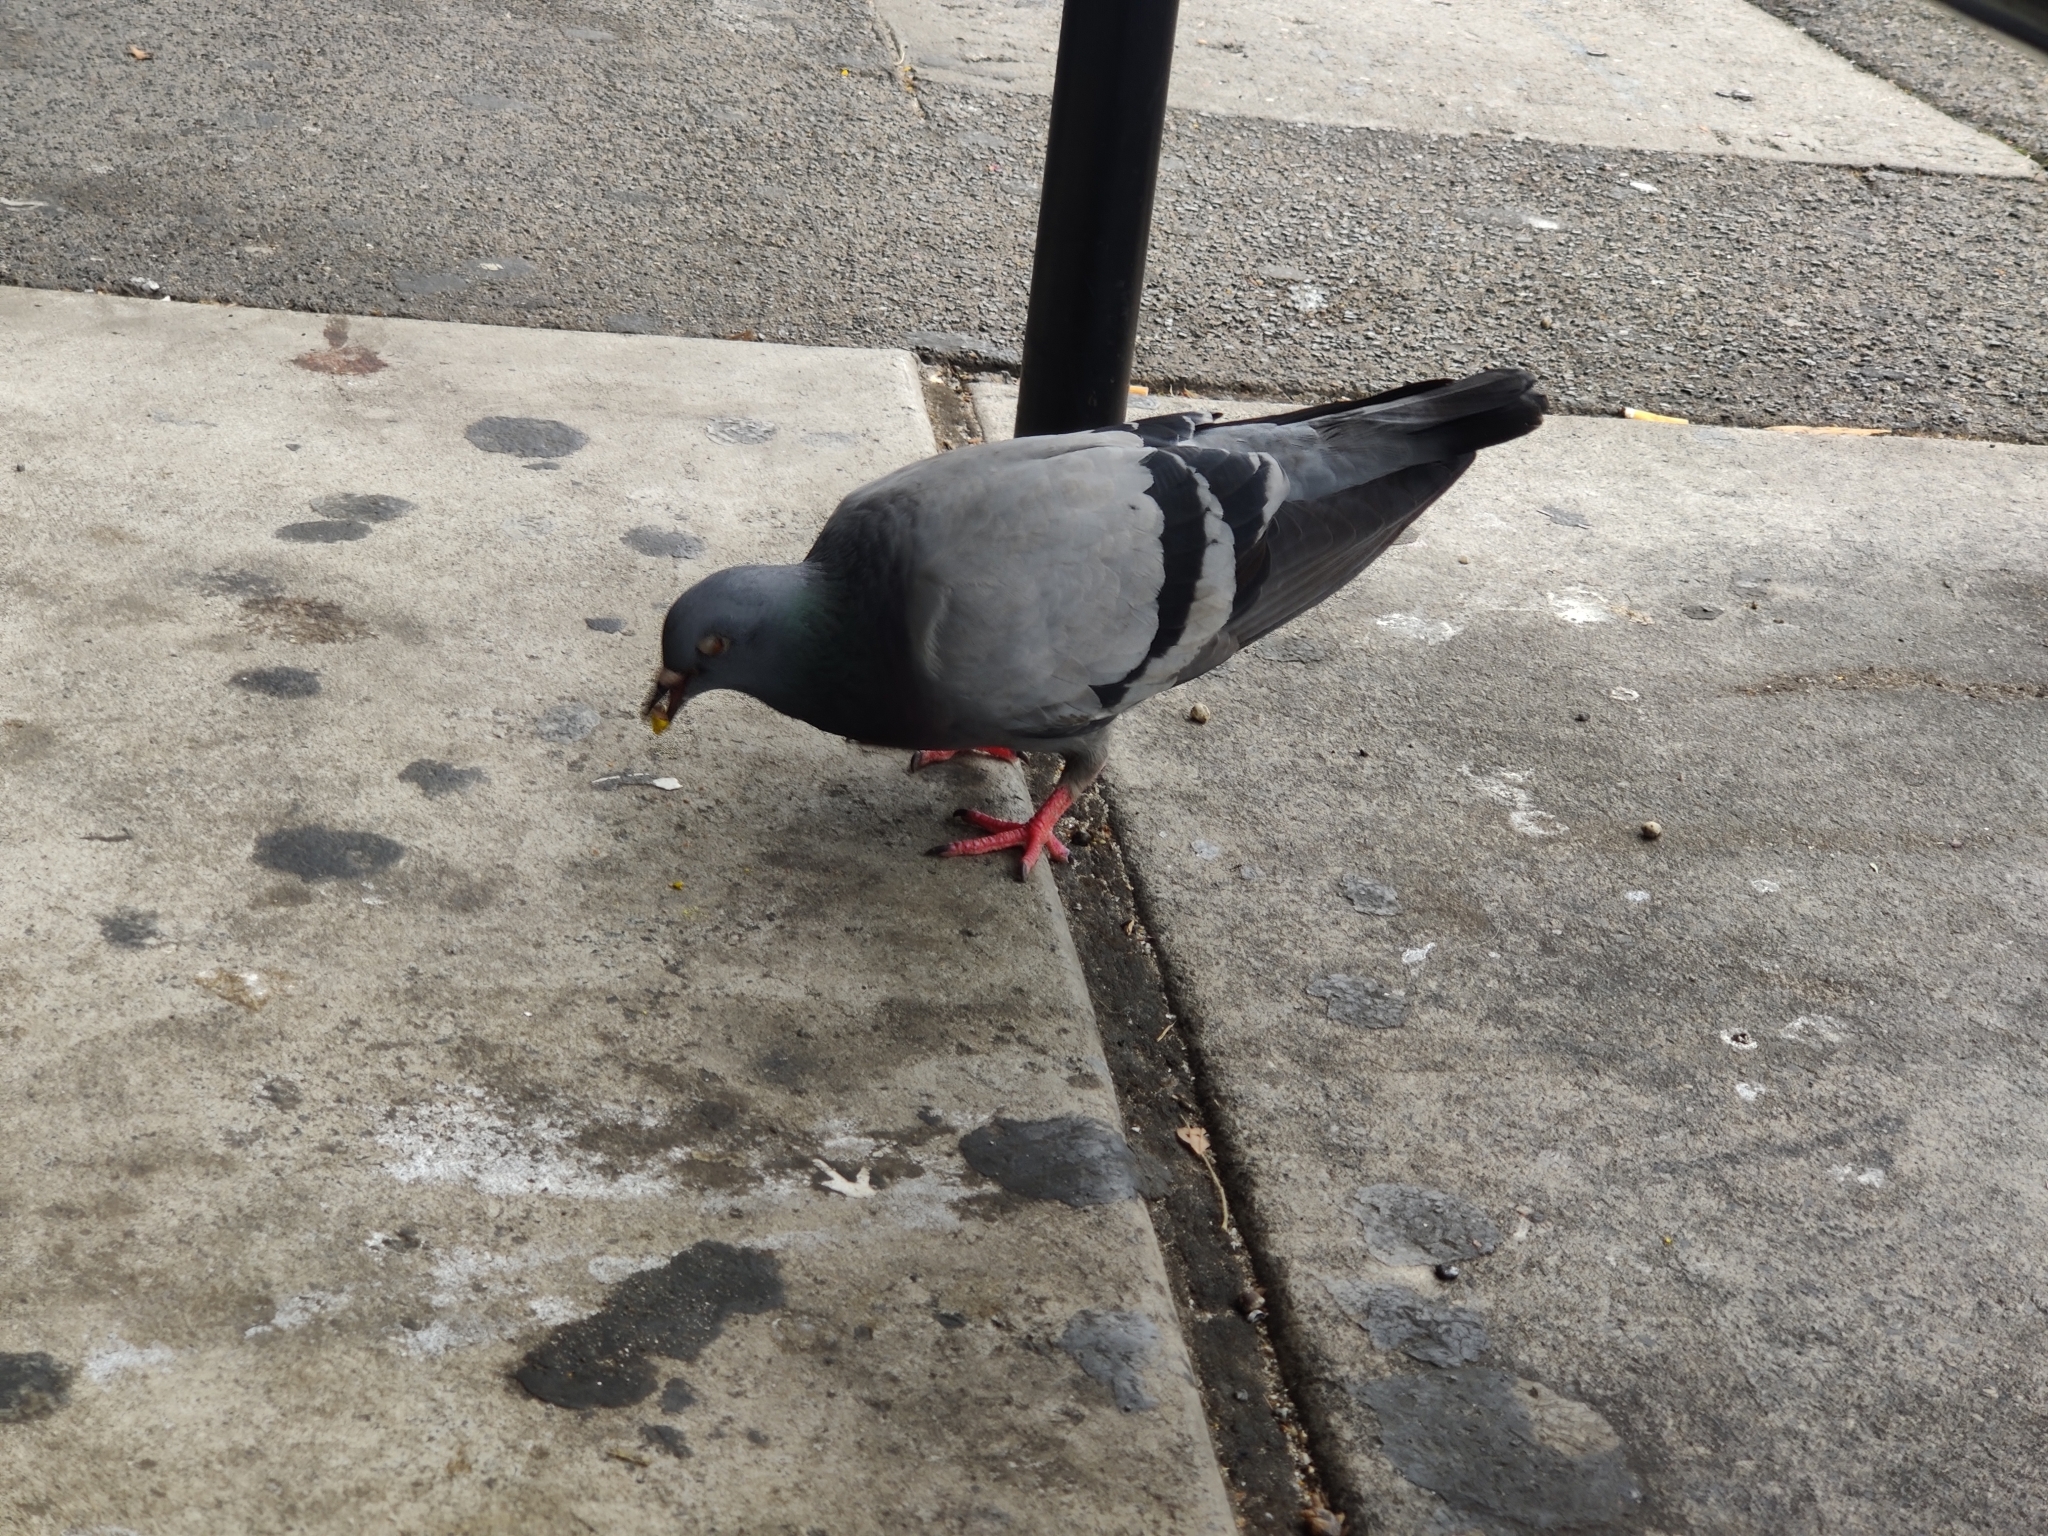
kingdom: Animalia
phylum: Chordata
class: Aves
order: Columbiformes
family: Columbidae
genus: Columba
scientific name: Columba livia
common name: Rock pigeon
